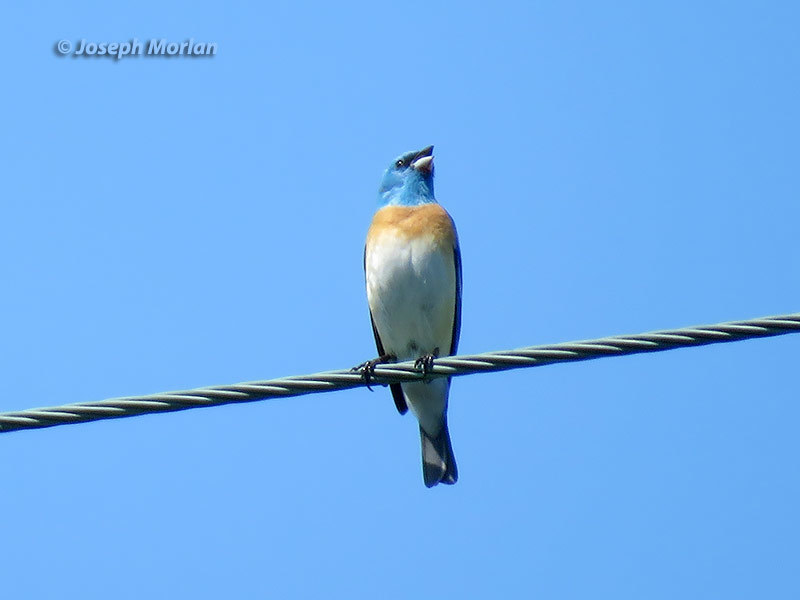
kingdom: Animalia
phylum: Chordata
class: Aves
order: Passeriformes
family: Cardinalidae
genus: Passerina
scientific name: Passerina amoena
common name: Lazuli bunting
